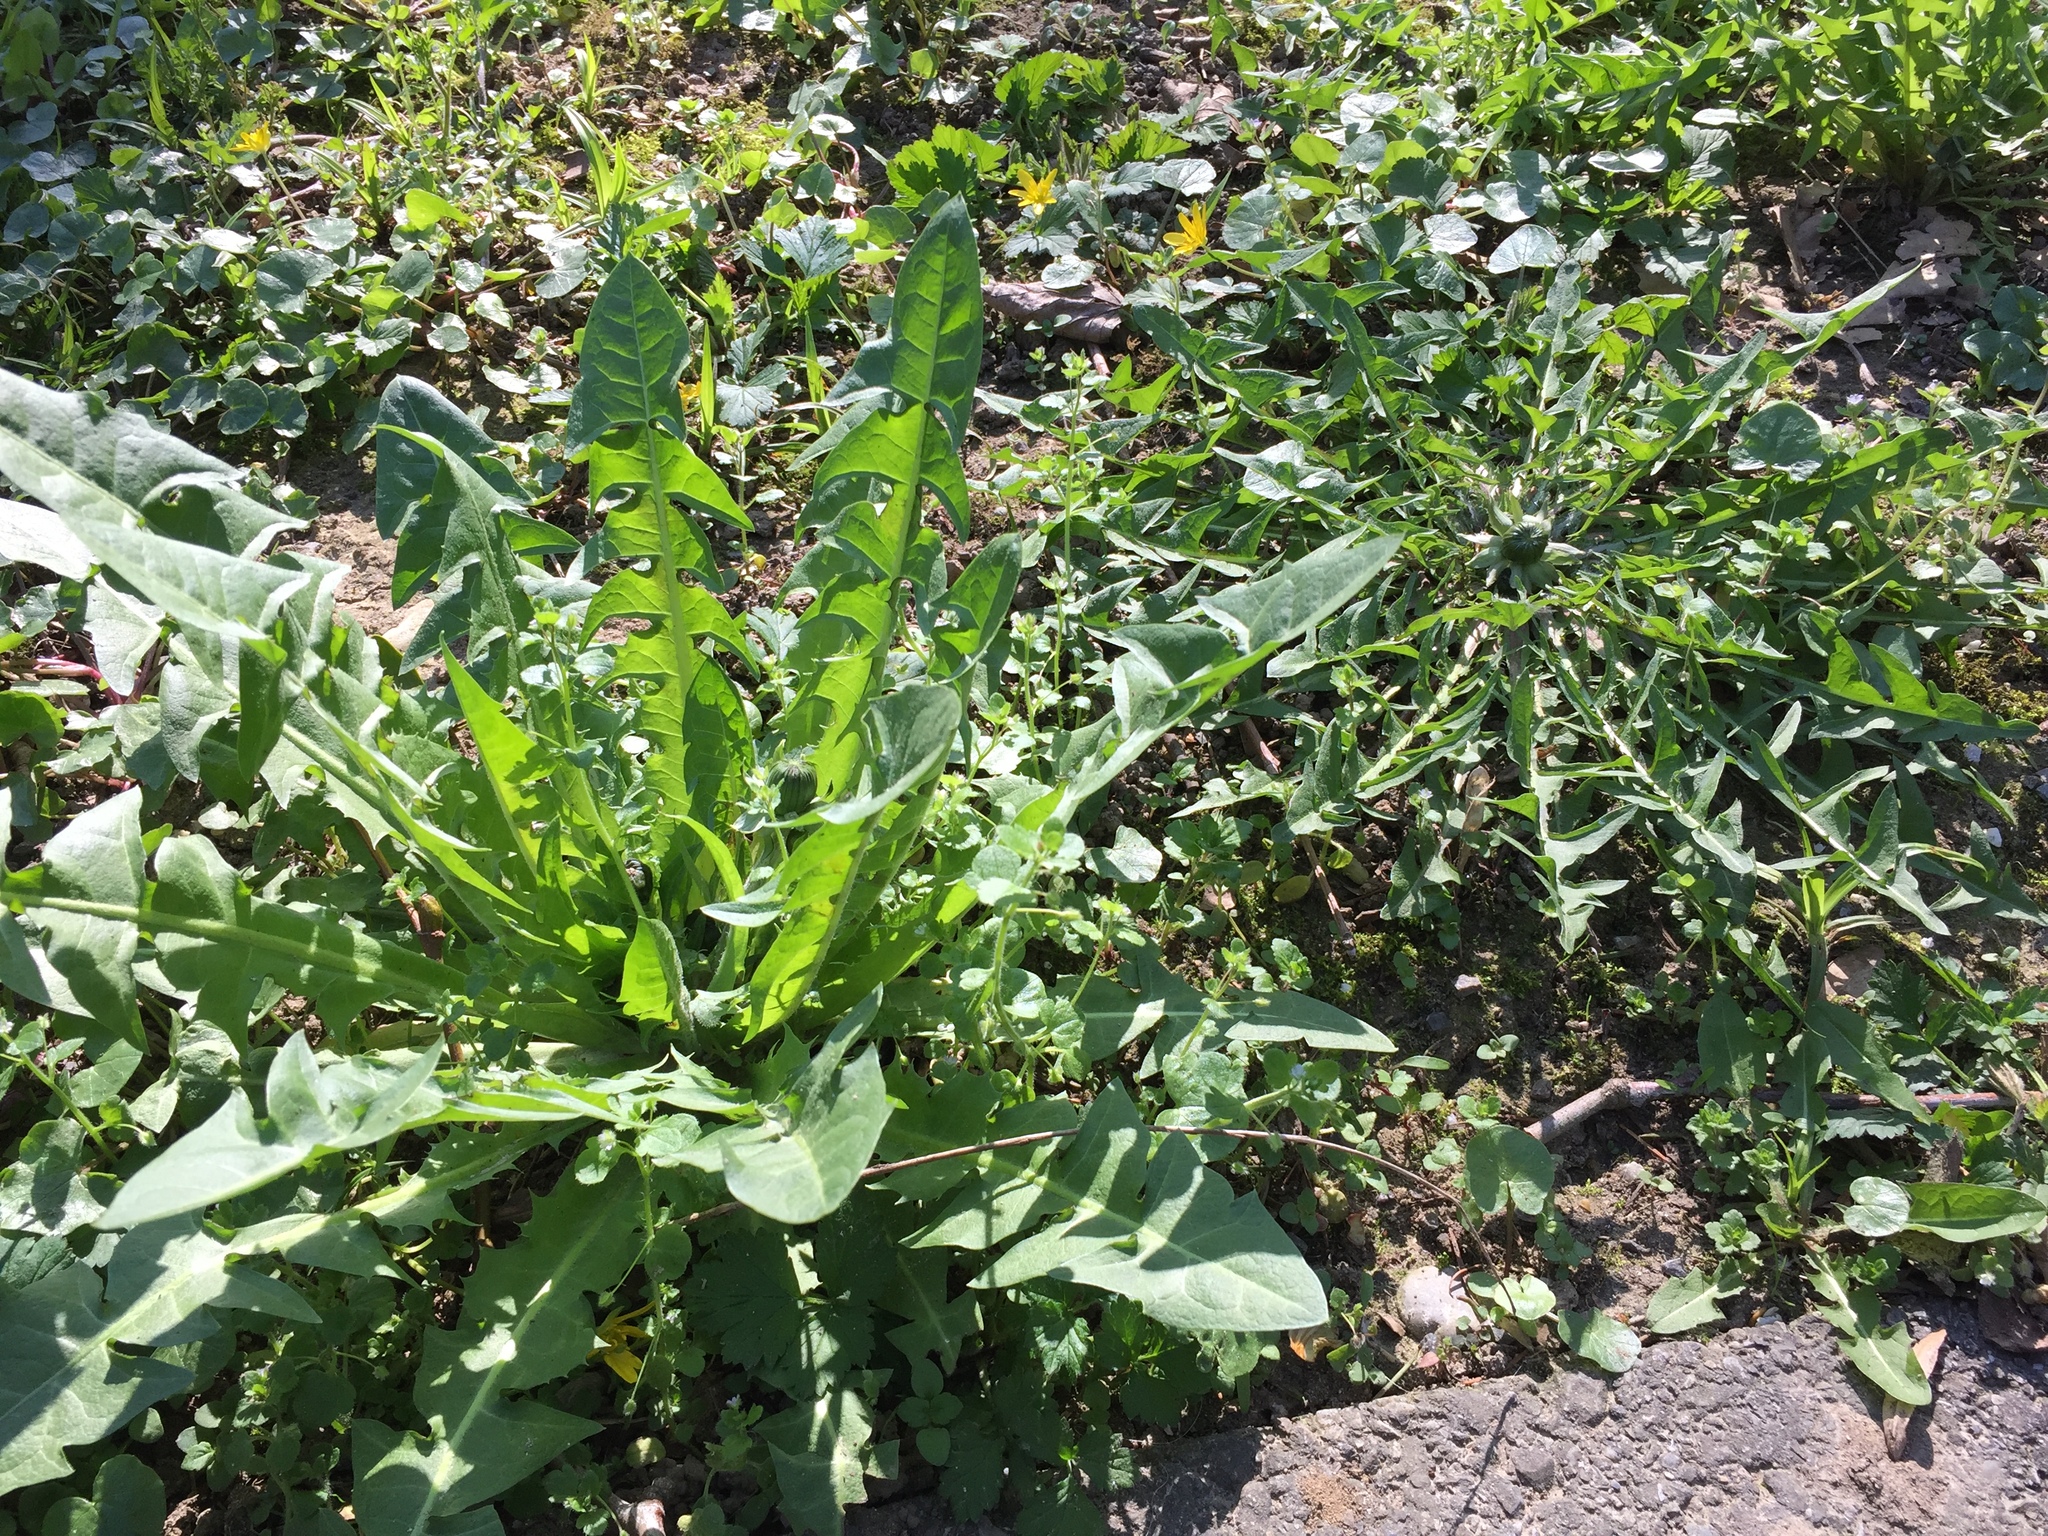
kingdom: Plantae
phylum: Tracheophyta
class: Magnoliopsida
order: Asterales
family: Asteraceae
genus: Taraxacum
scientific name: Taraxacum officinale
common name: Common dandelion
